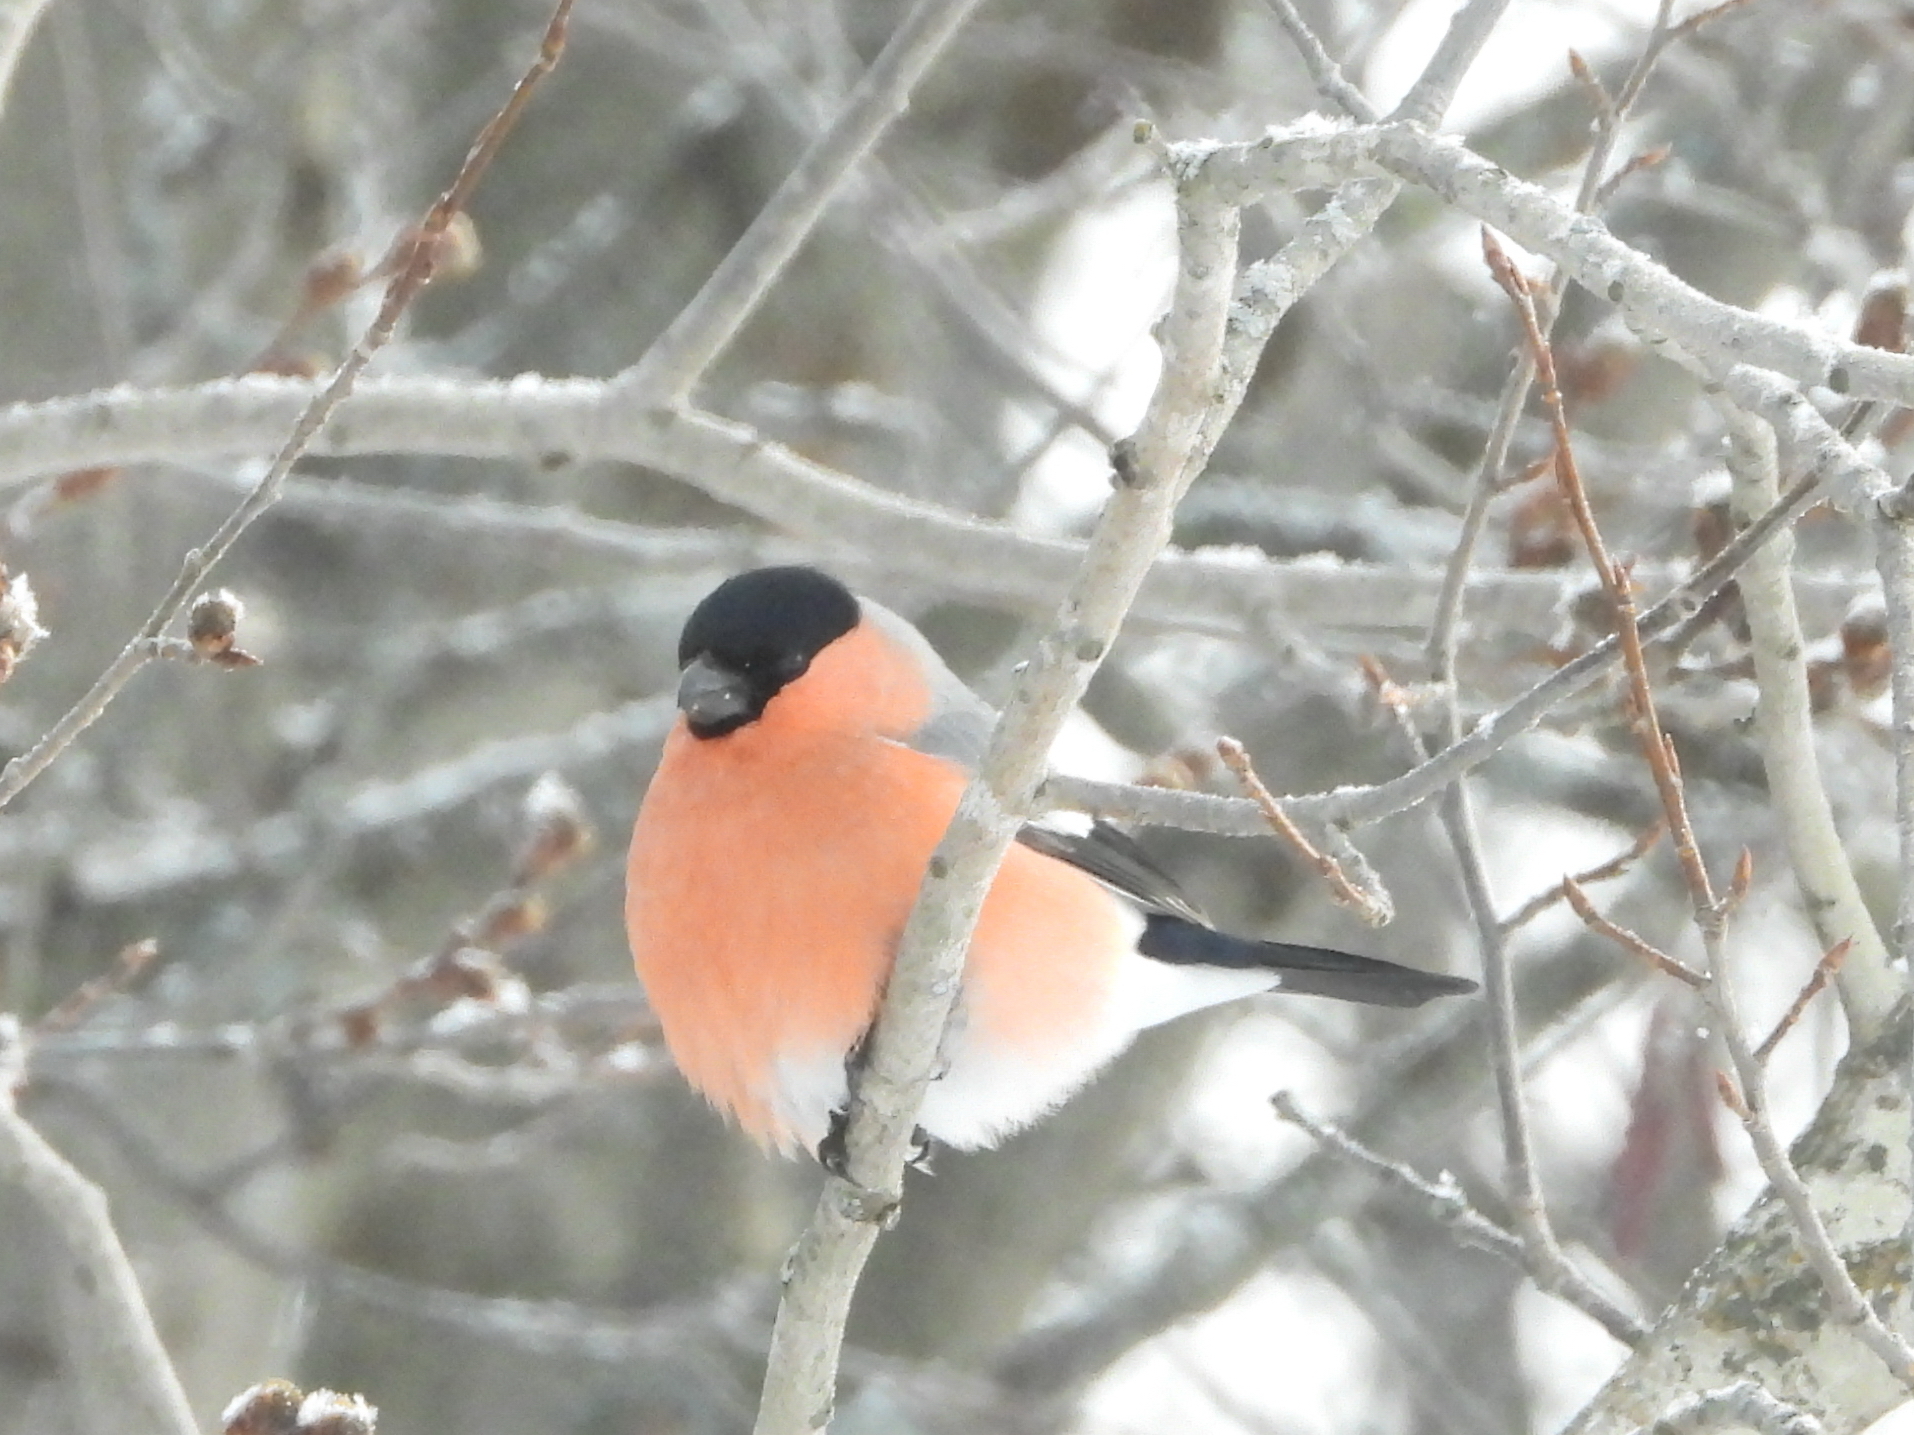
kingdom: Animalia
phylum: Chordata
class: Aves
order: Passeriformes
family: Fringillidae
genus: Pyrrhula
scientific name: Pyrrhula pyrrhula
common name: Eurasian bullfinch
